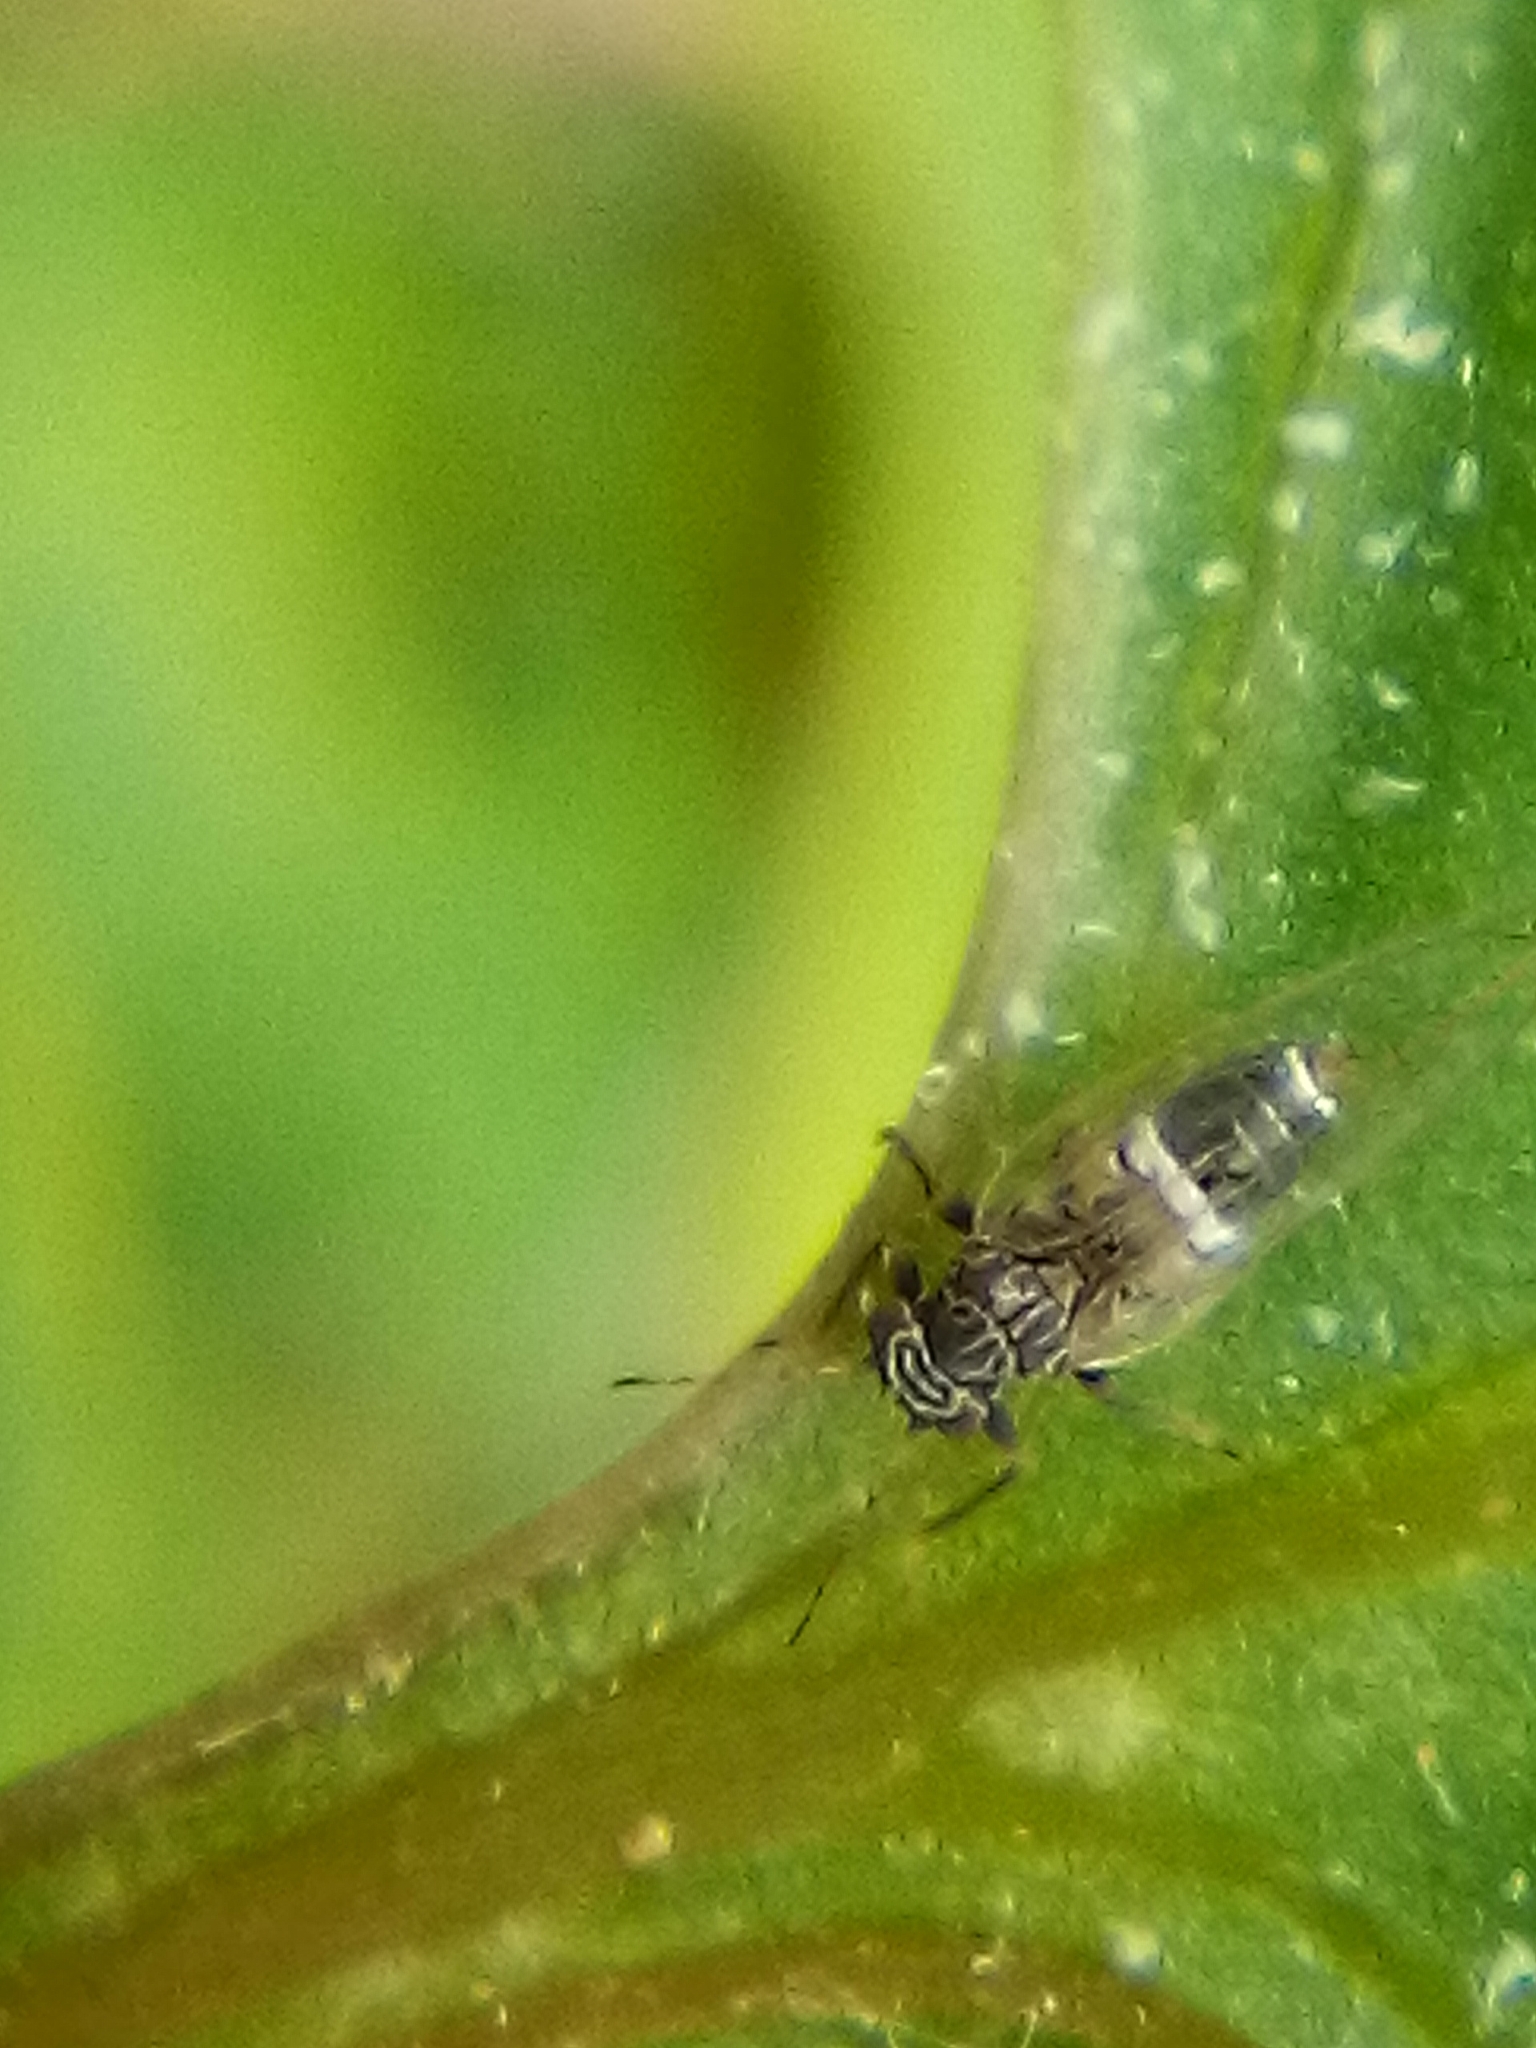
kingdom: Animalia
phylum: Arthropoda
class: Insecta
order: Hemiptera
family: Triozidae
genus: Bactericera
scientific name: Bactericera cockerelli
